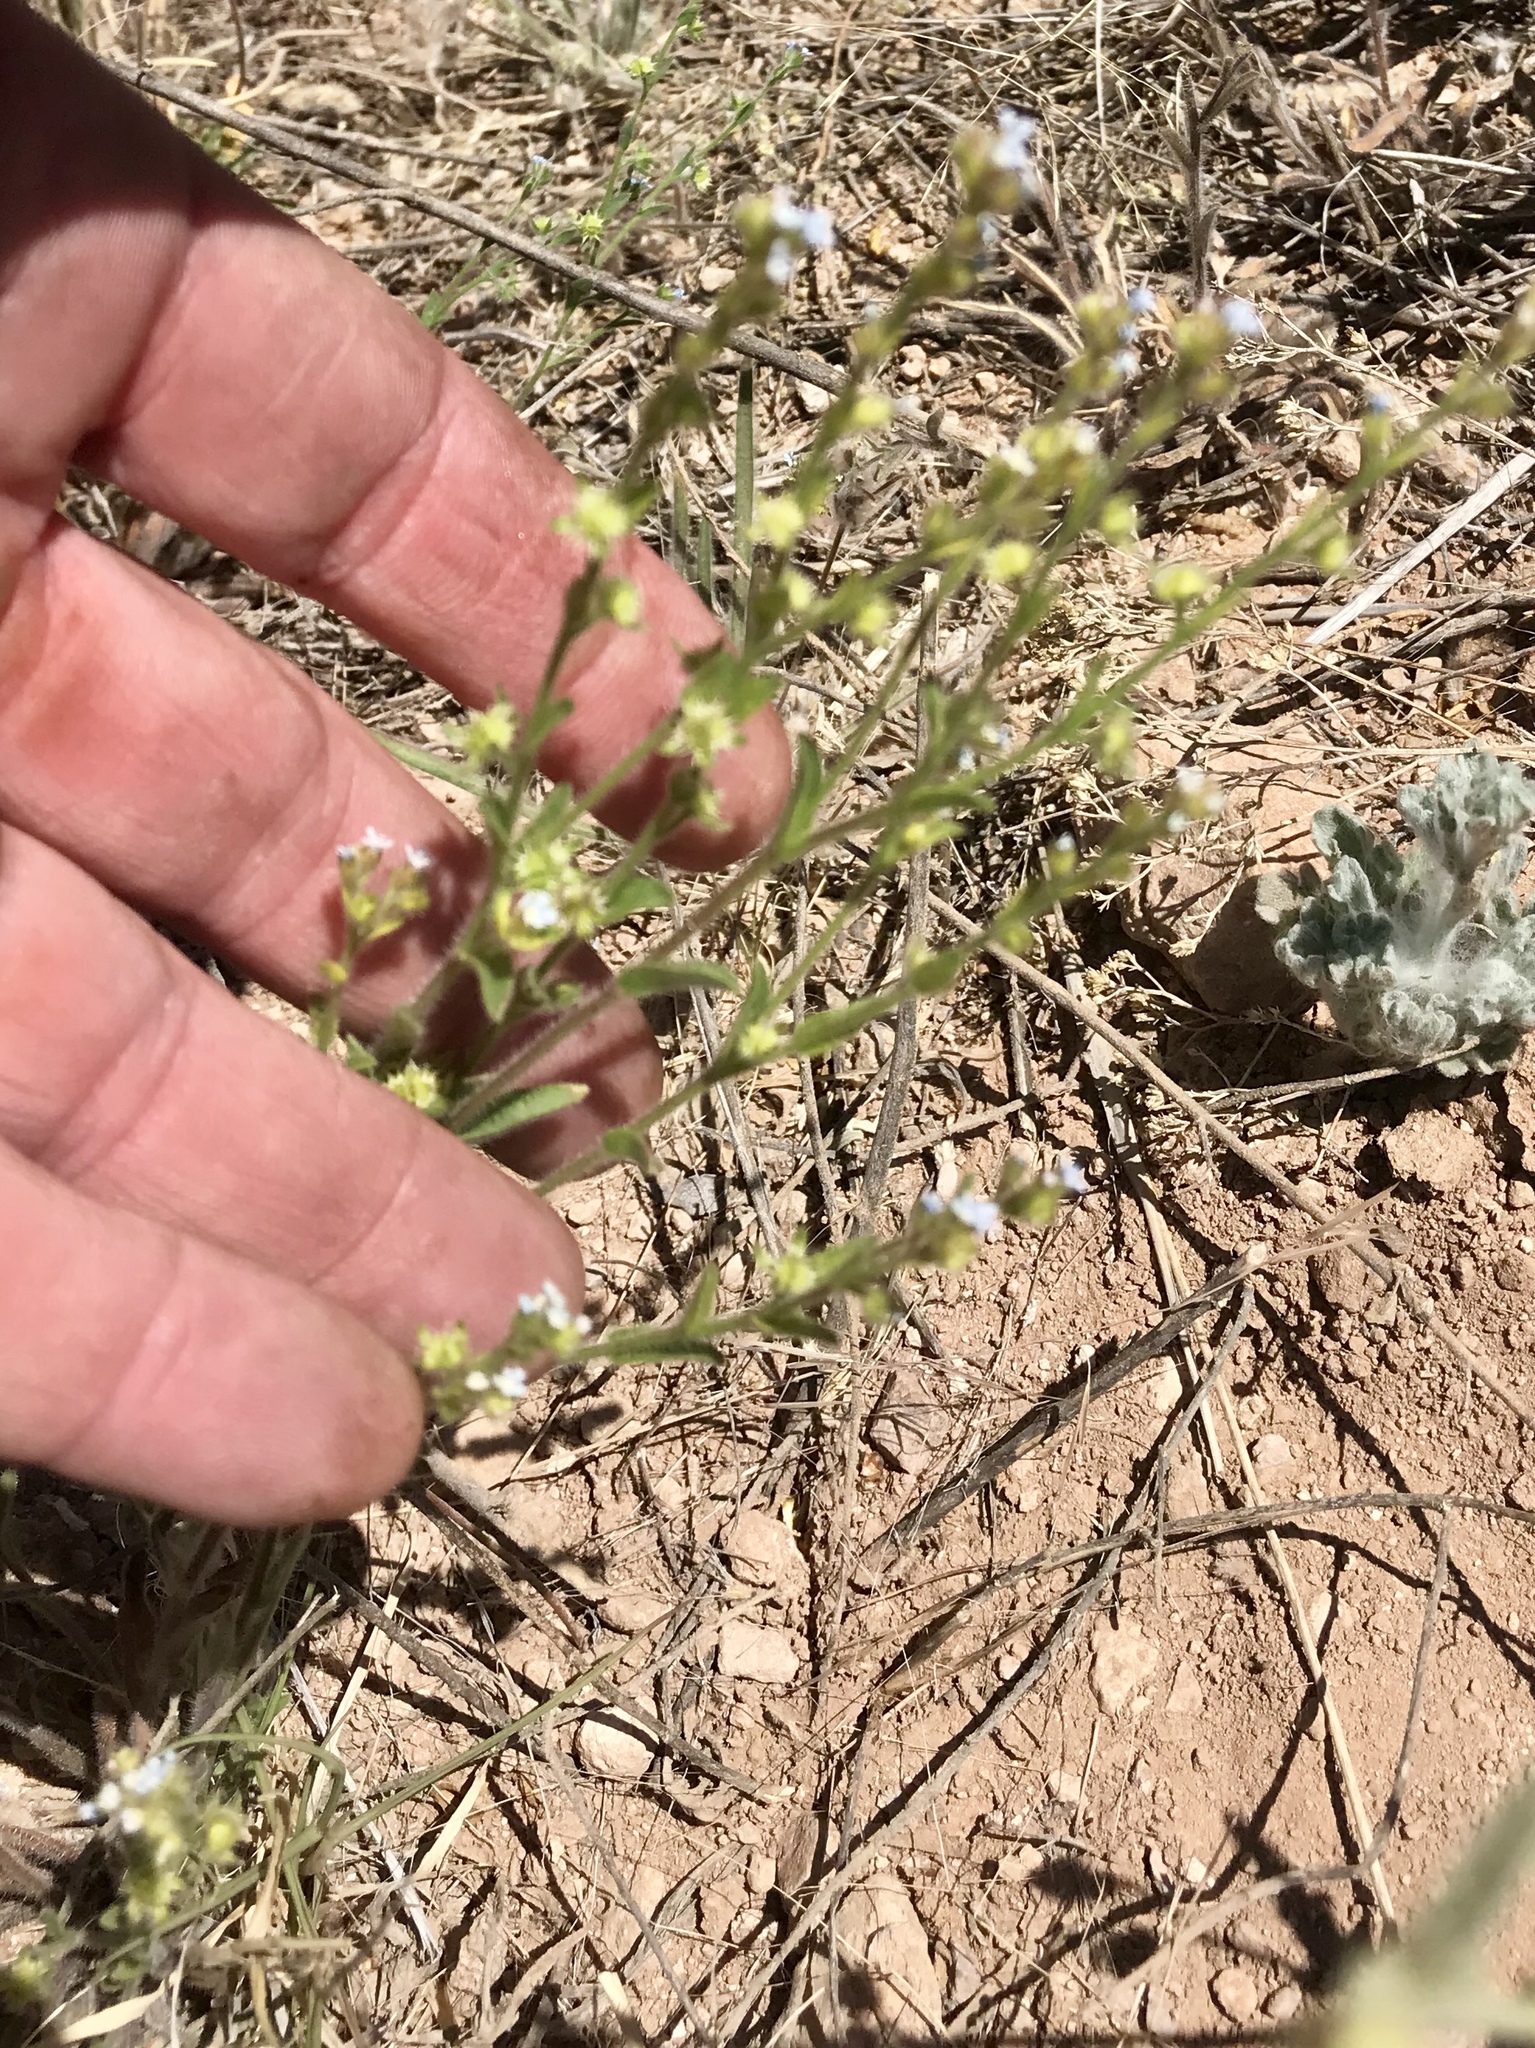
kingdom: Plantae
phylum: Tracheophyta
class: Magnoliopsida
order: Boraginales
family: Boraginaceae
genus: Lappula
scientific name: Lappula occidentalis
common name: Western stickseed
